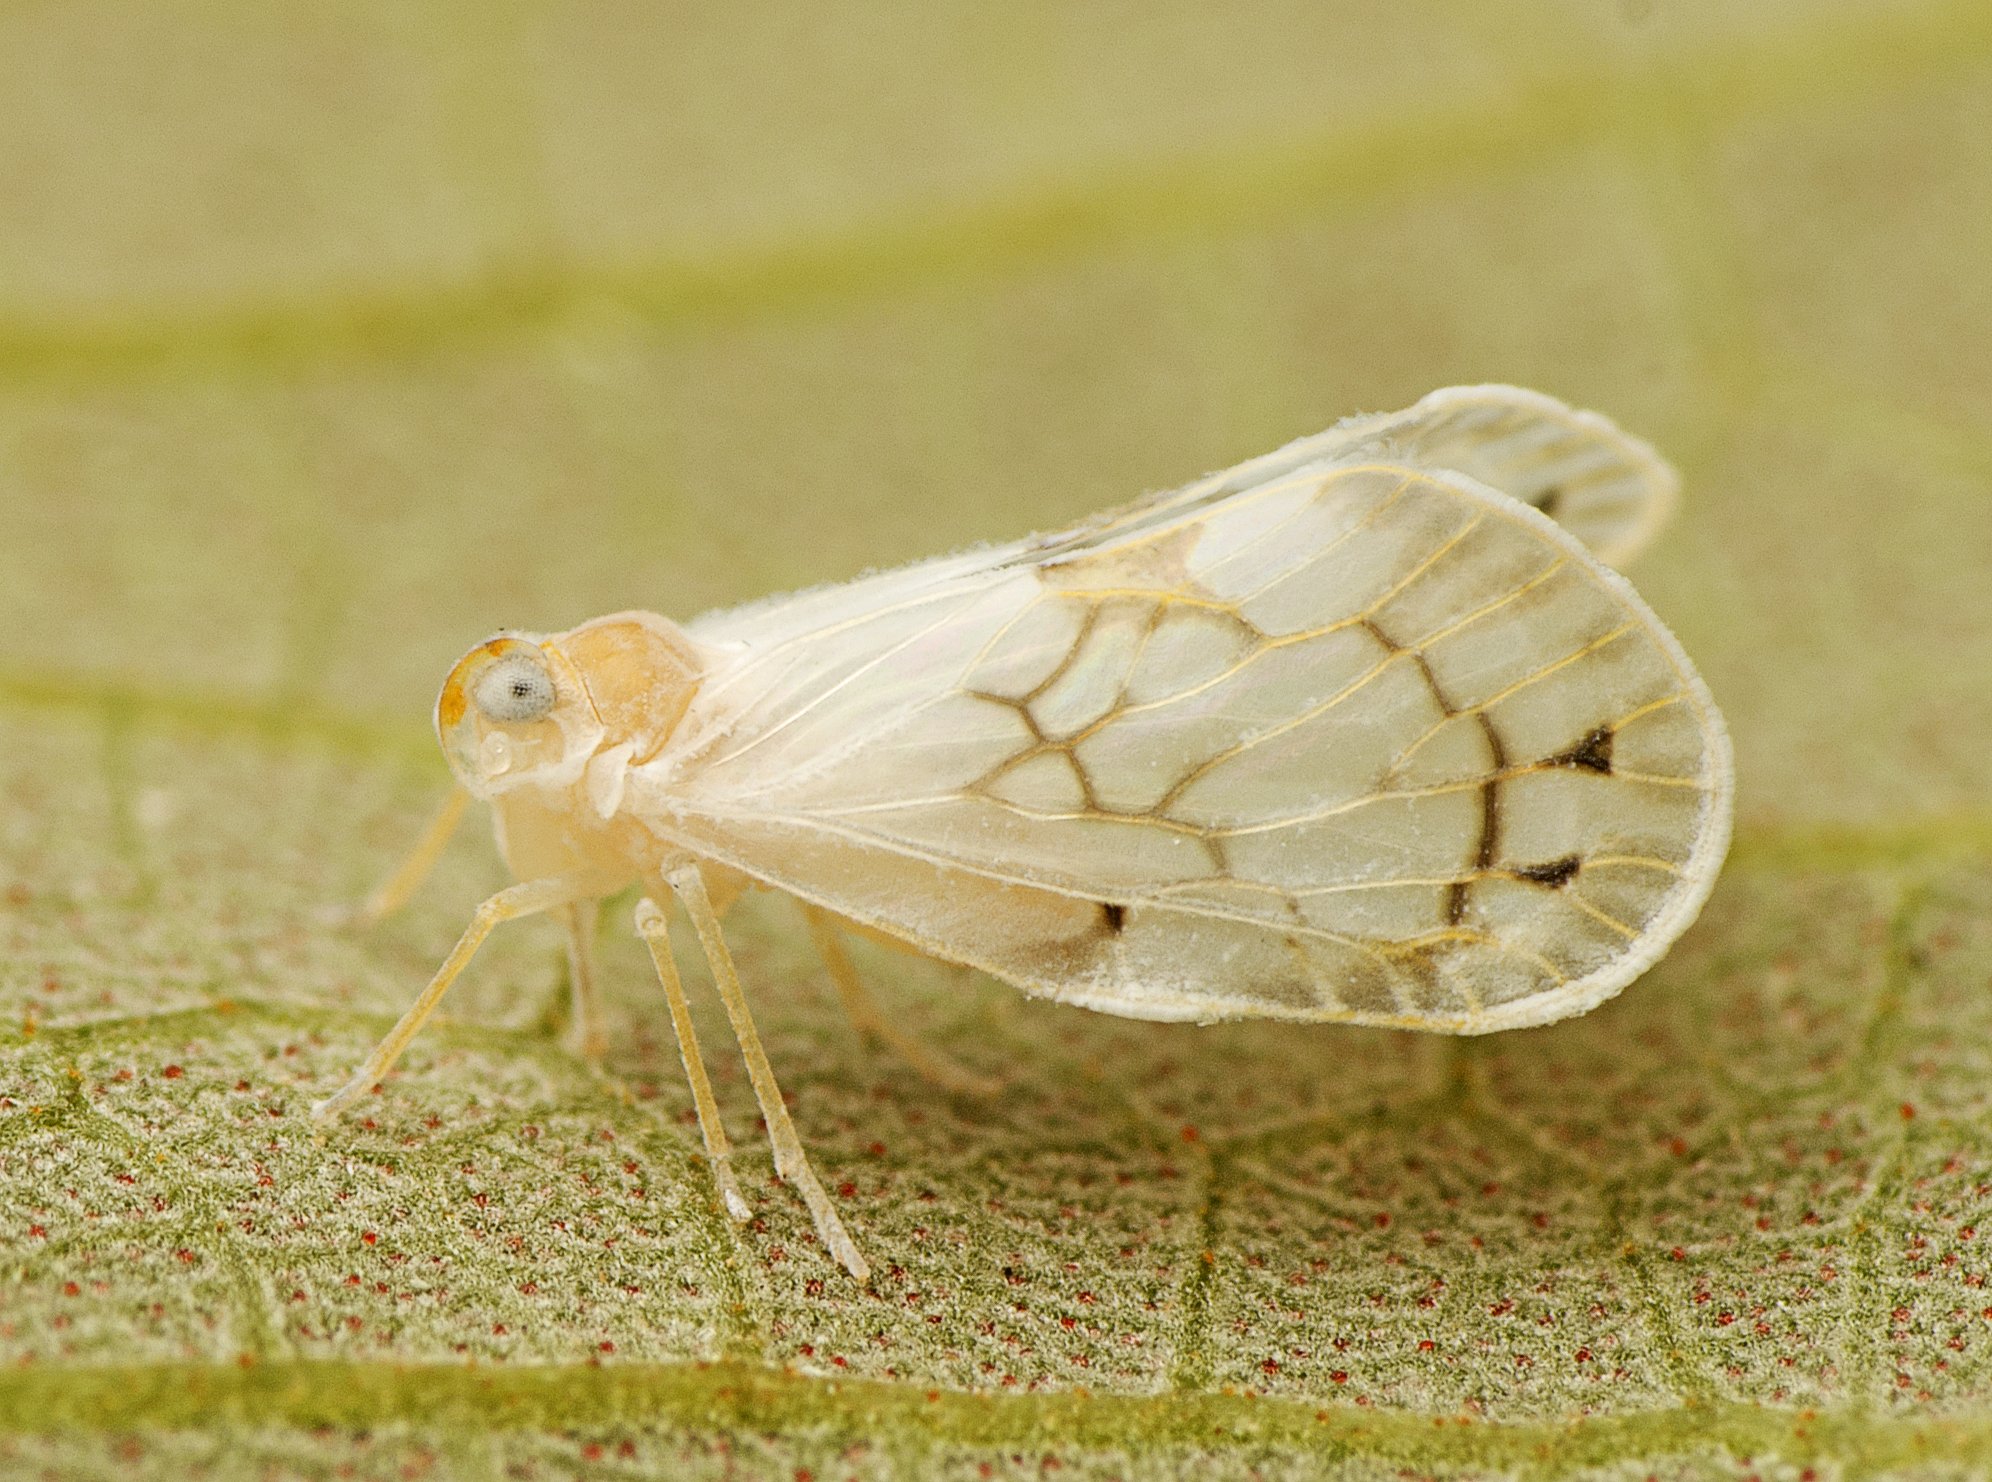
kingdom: Animalia
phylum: Arthropoda
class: Insecta
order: Hemiptera
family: Derbidae
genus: Levu
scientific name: Levu vitiensis
